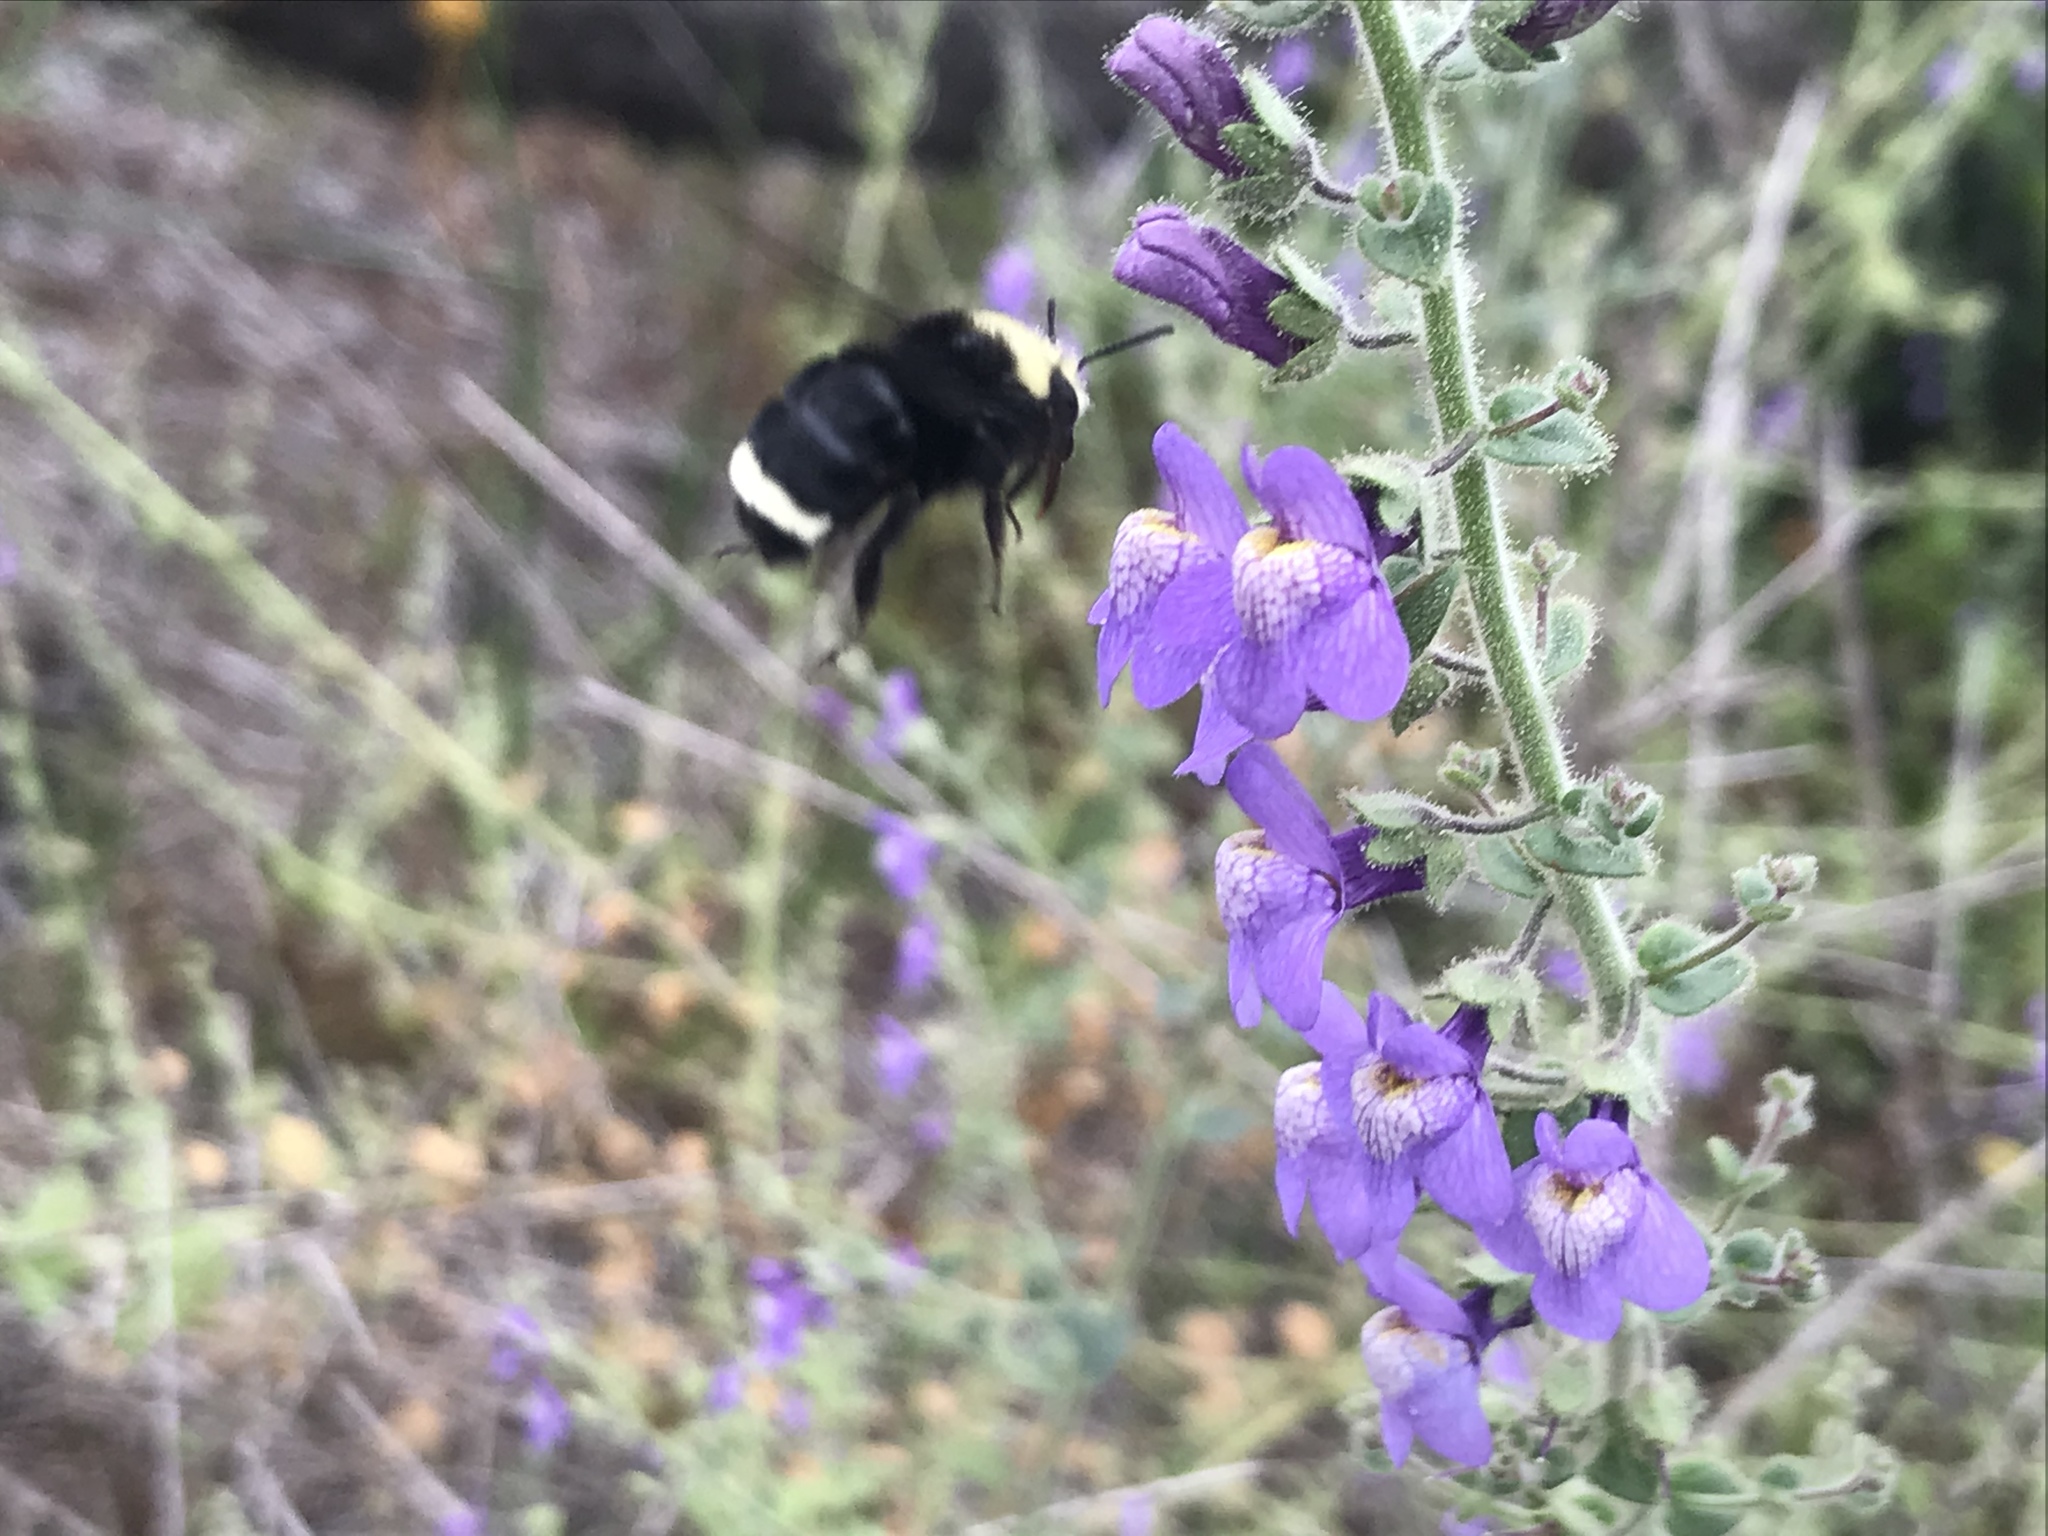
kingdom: Animalia
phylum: Arthropoda
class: Insecta
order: Hymenoptera
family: Apidae
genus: Bombus
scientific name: Bombus vosnesenskii
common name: Vosnesensky bumble bee
